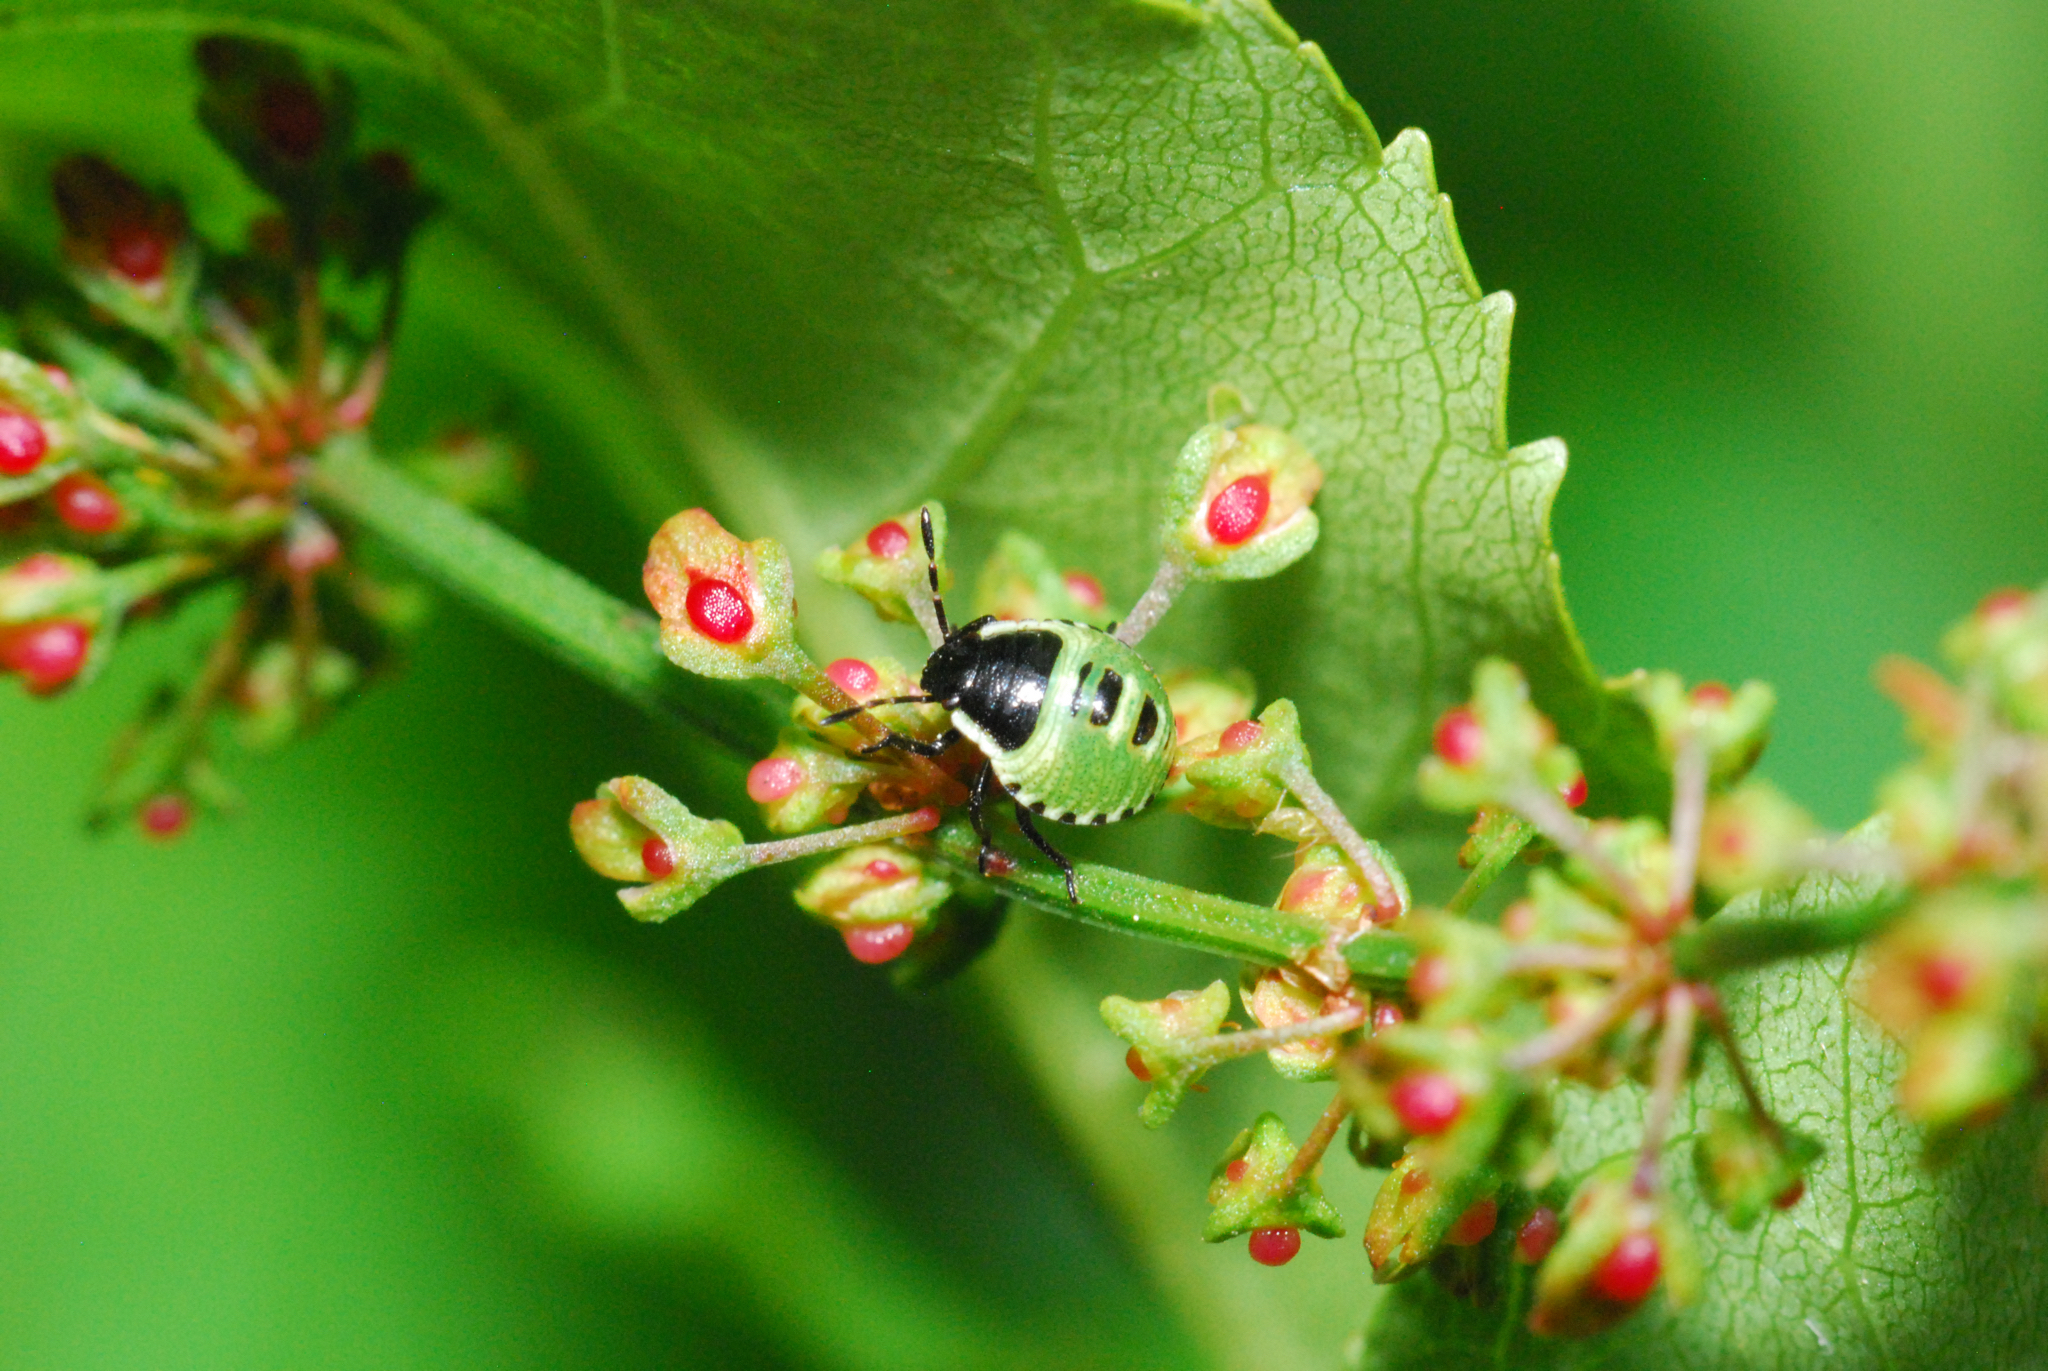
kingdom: Animalia
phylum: Arthropoda
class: Insecta
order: Hemiptera
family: Pentatomidae
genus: Palomena
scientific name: Palomena prasina
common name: Green shieldbug
